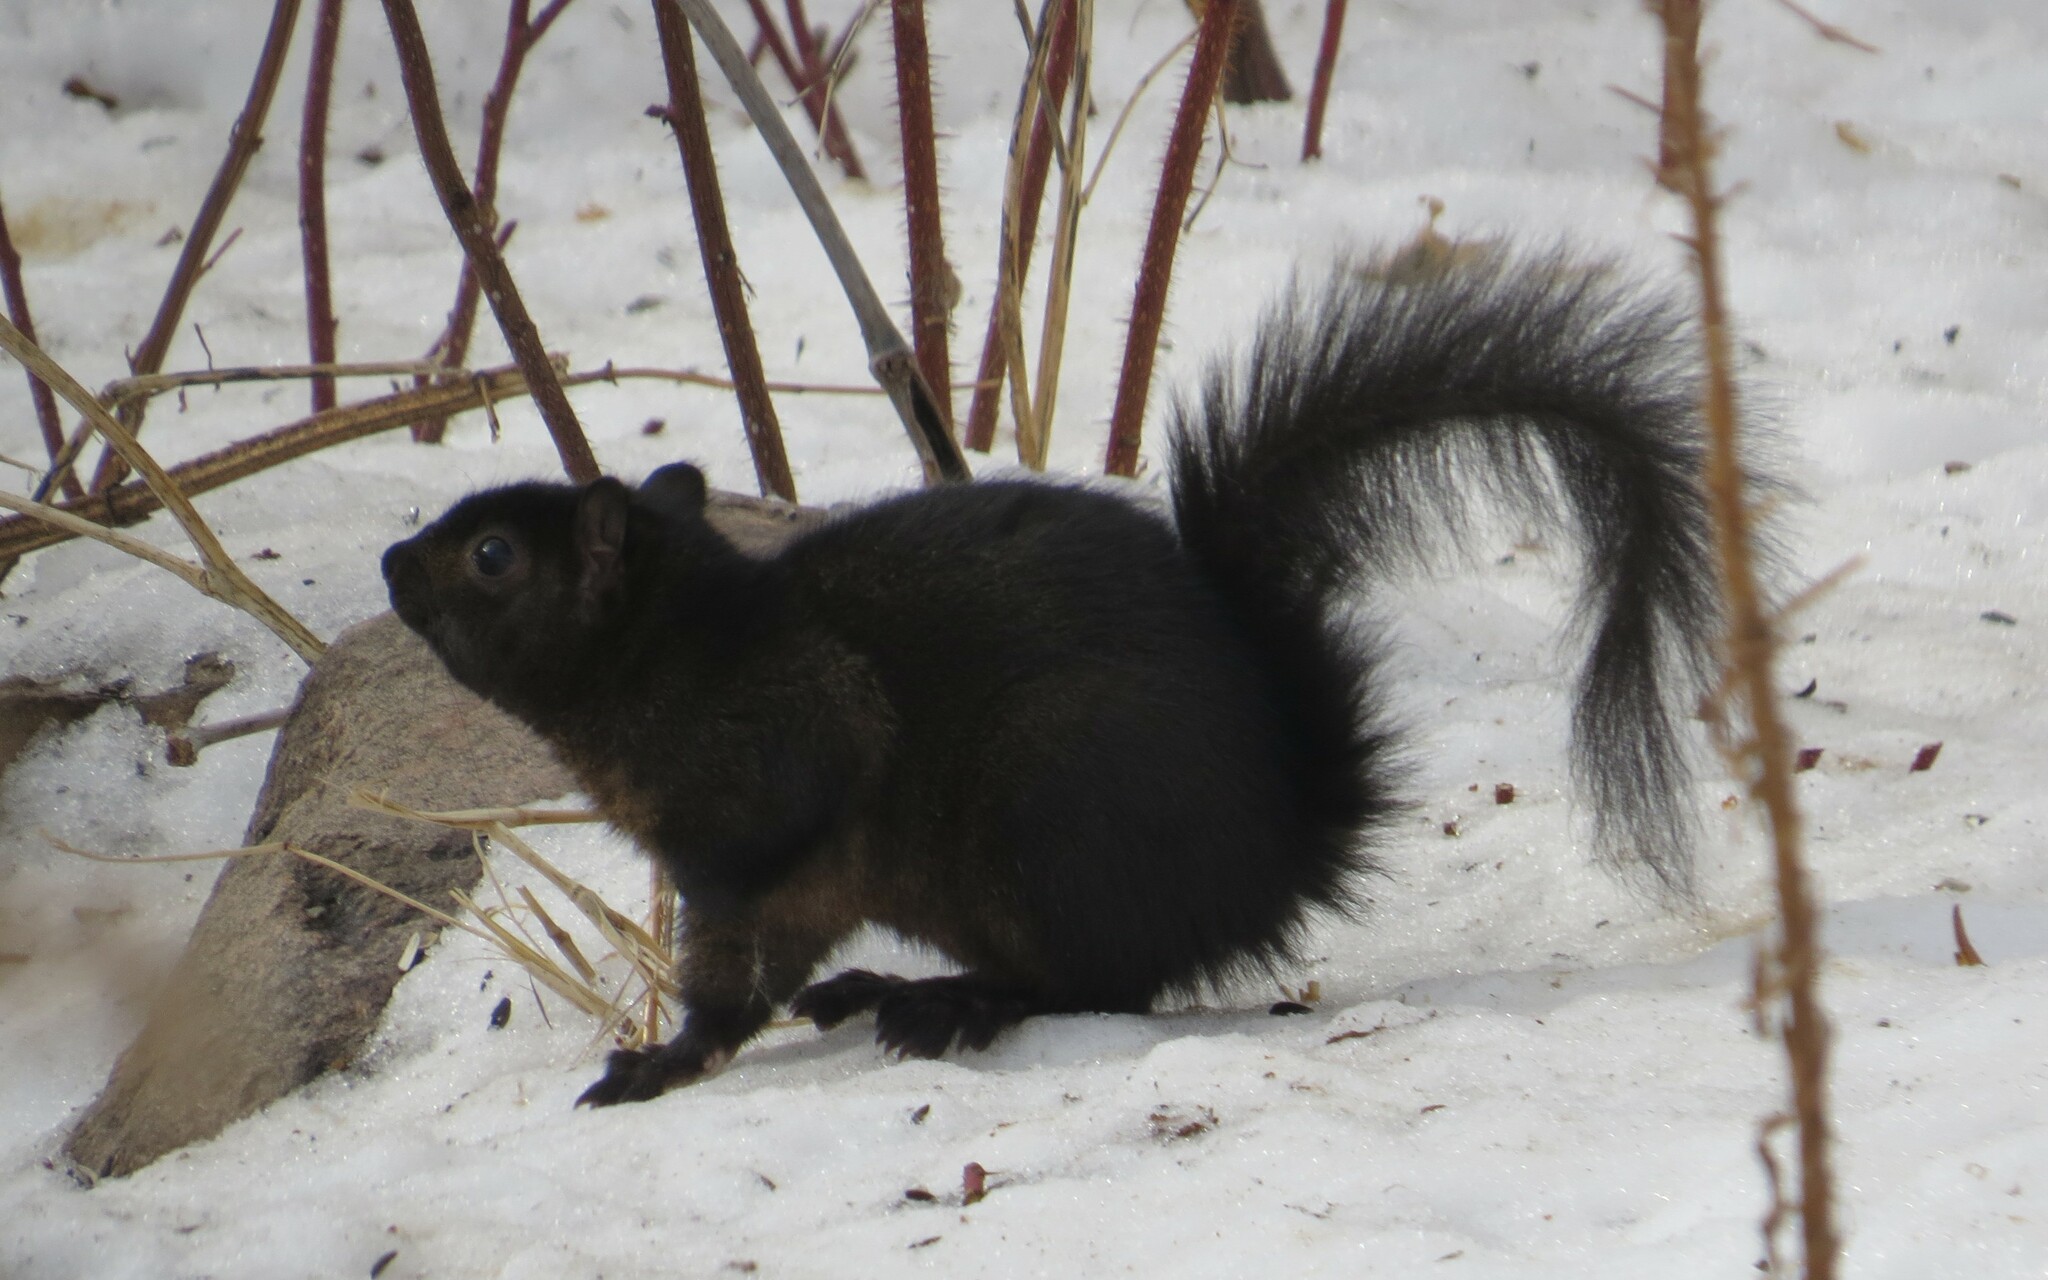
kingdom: Animalia
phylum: Chordata
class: Mammalia
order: Rodentia
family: Sciuridae
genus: Sciurus
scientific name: Sciurus carolinensis
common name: Eastern gray squirrel
